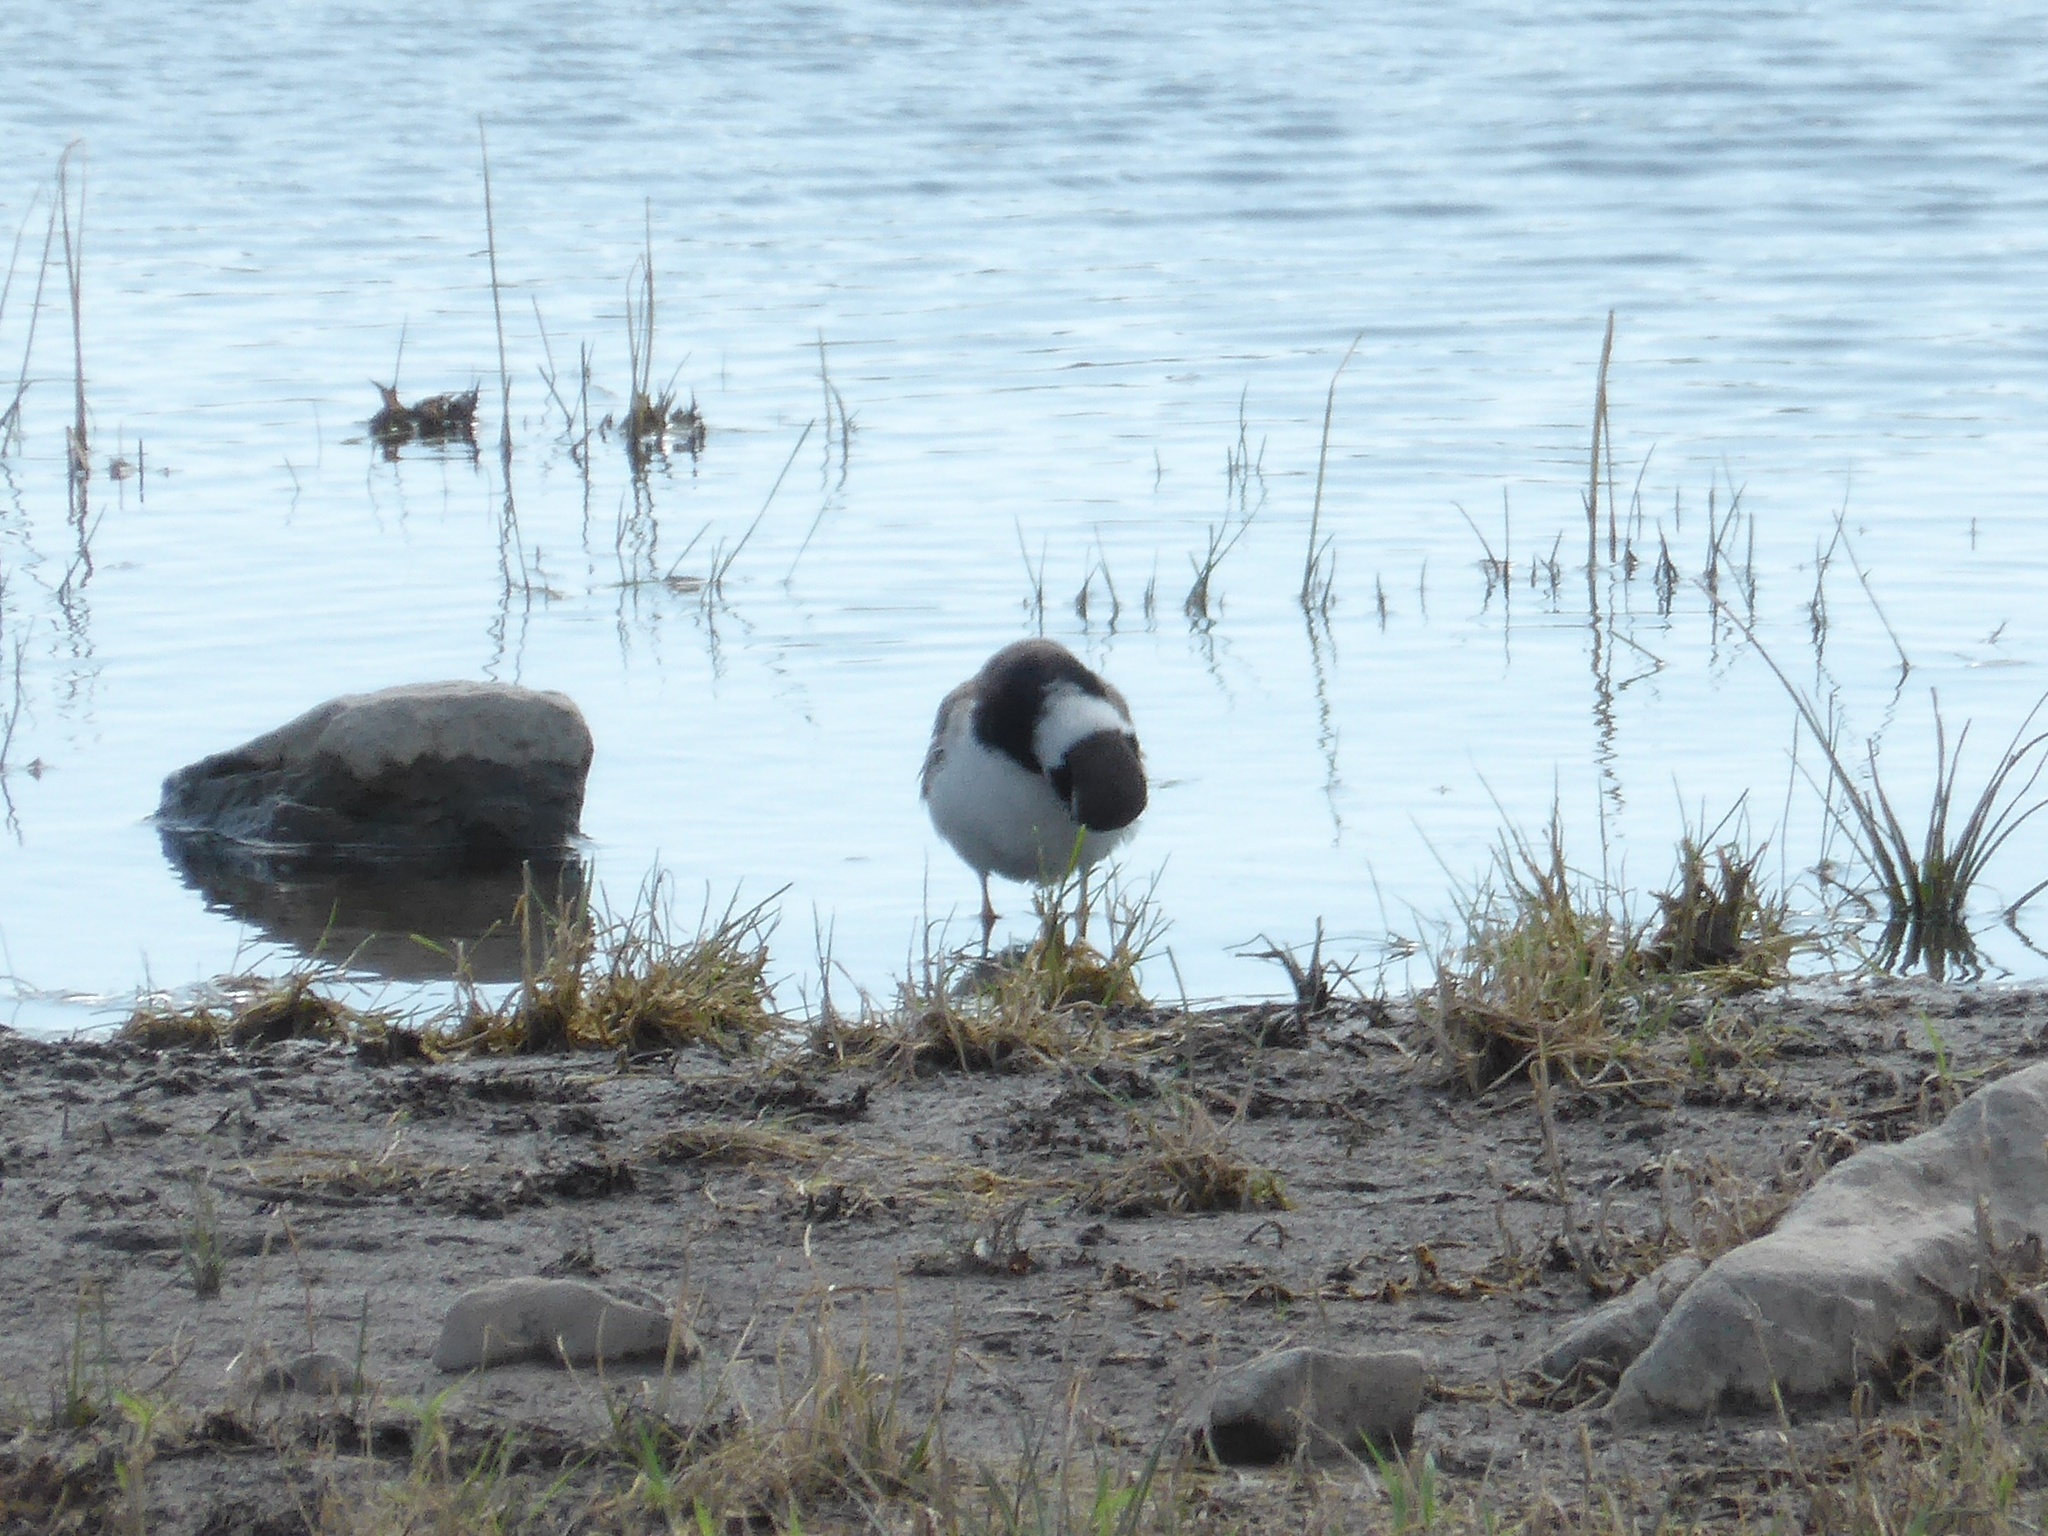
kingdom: Animalia
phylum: Chordata
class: Aves
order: Charadriiformes
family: Charadriidae
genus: Charadrius
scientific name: Charadrius hiaticula
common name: Common ringed plover
